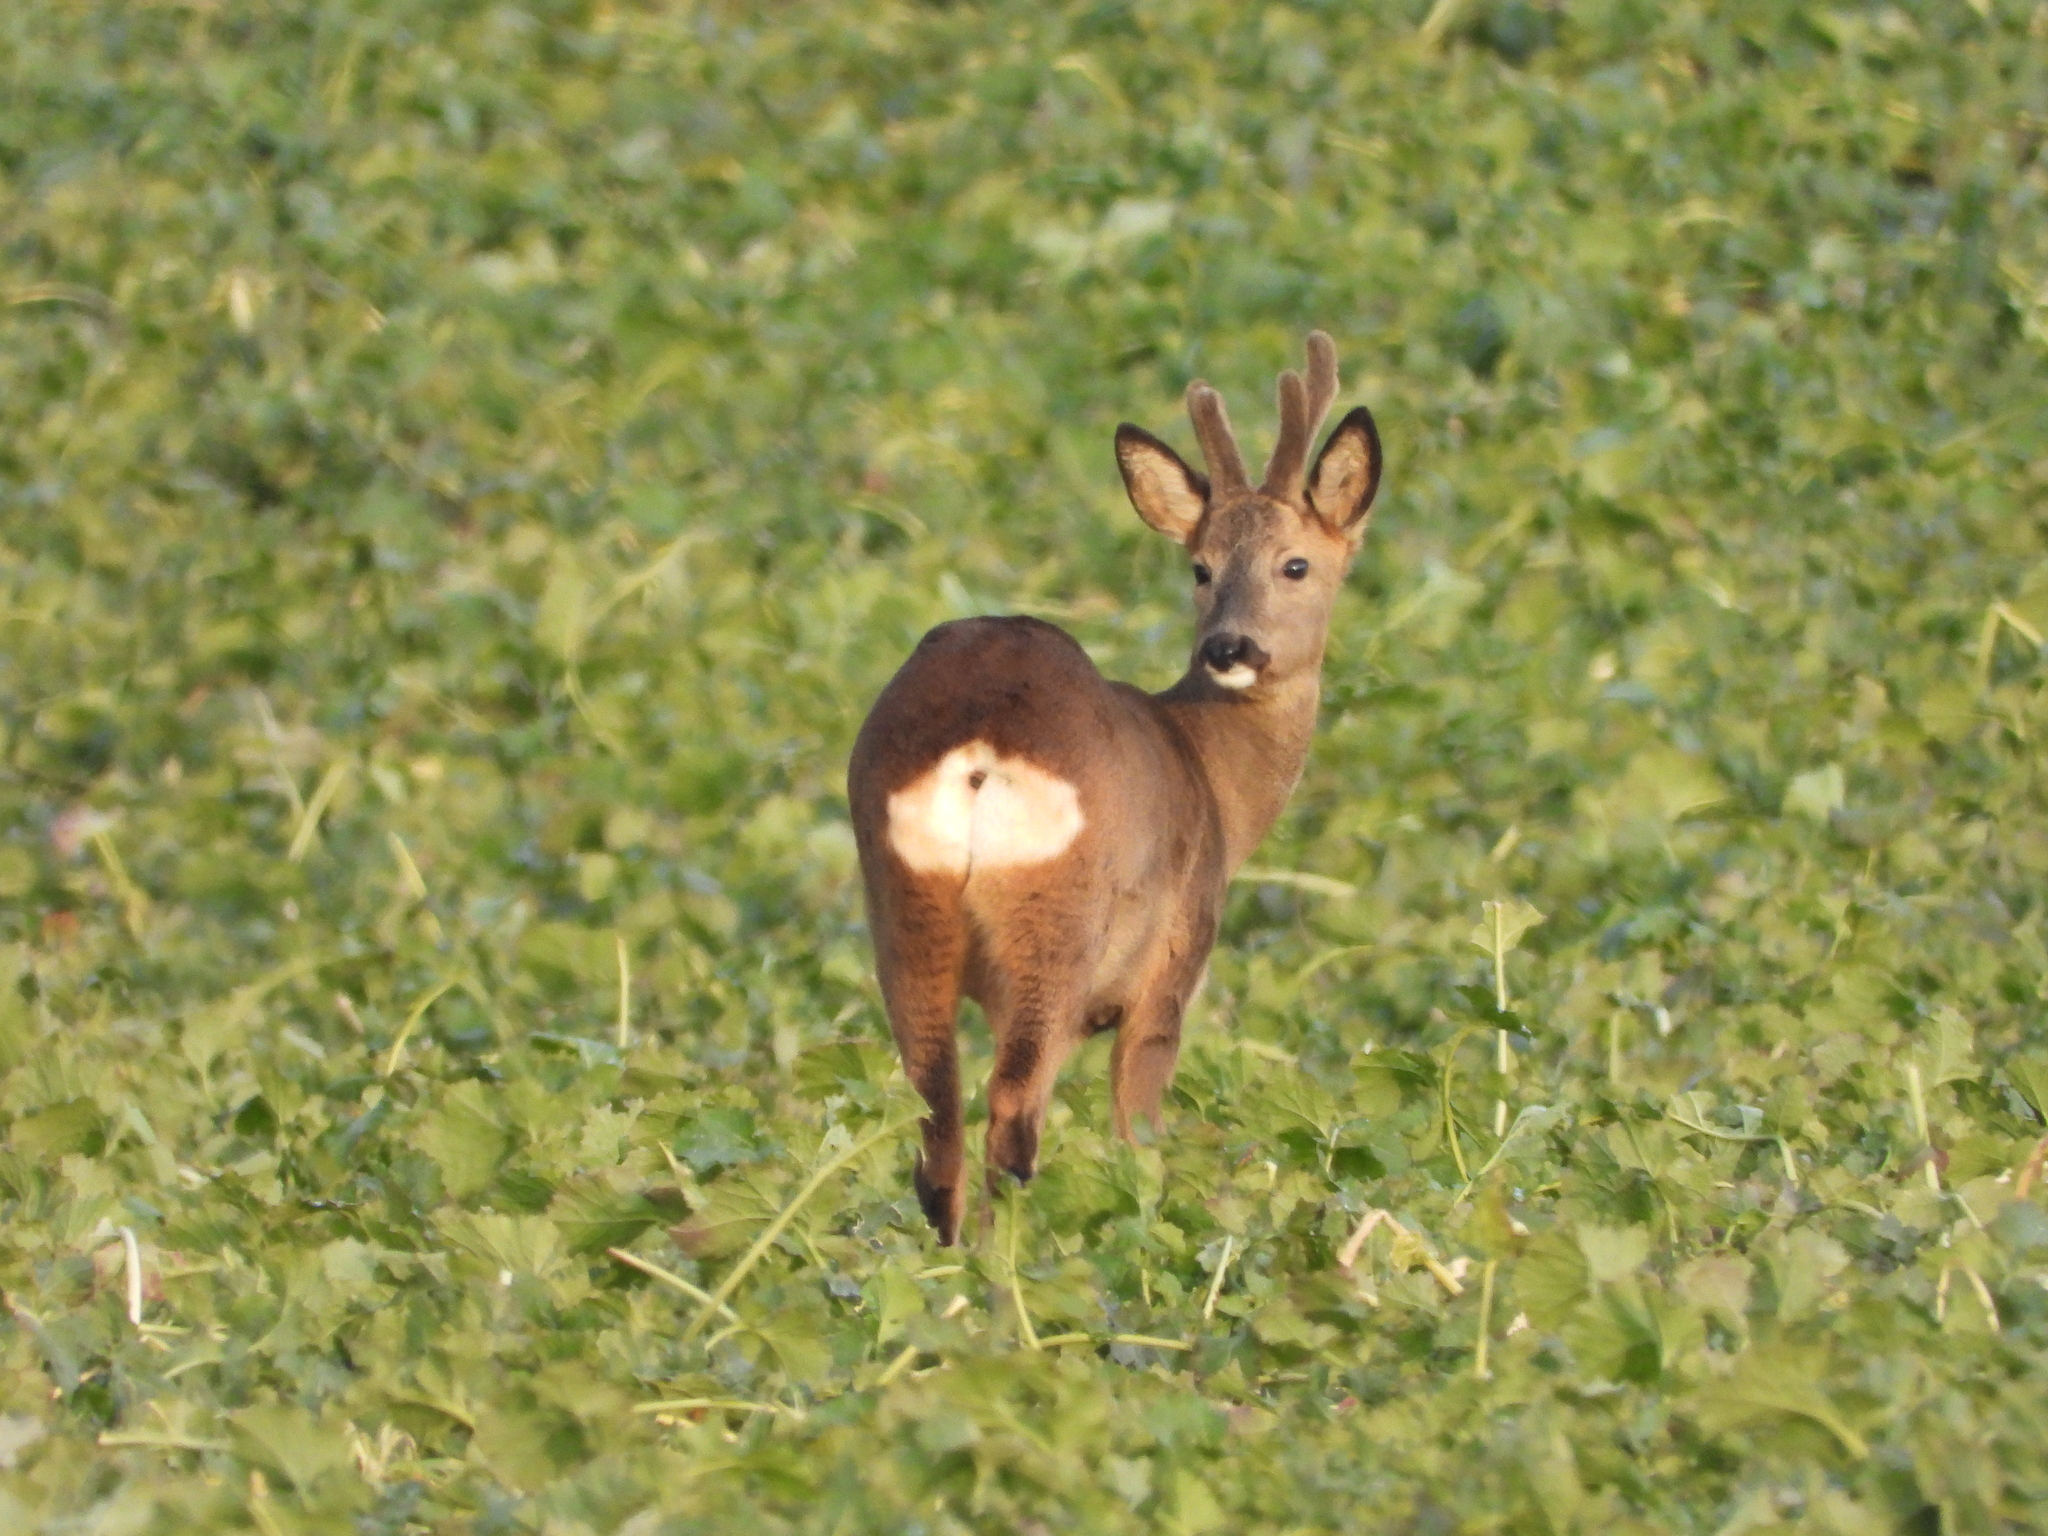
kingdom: Animalia
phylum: Chordata
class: Mammalia
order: Artiodactyla
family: Cervidae
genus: Capreolus
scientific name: Capreolus capreolus
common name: Western roe deer
